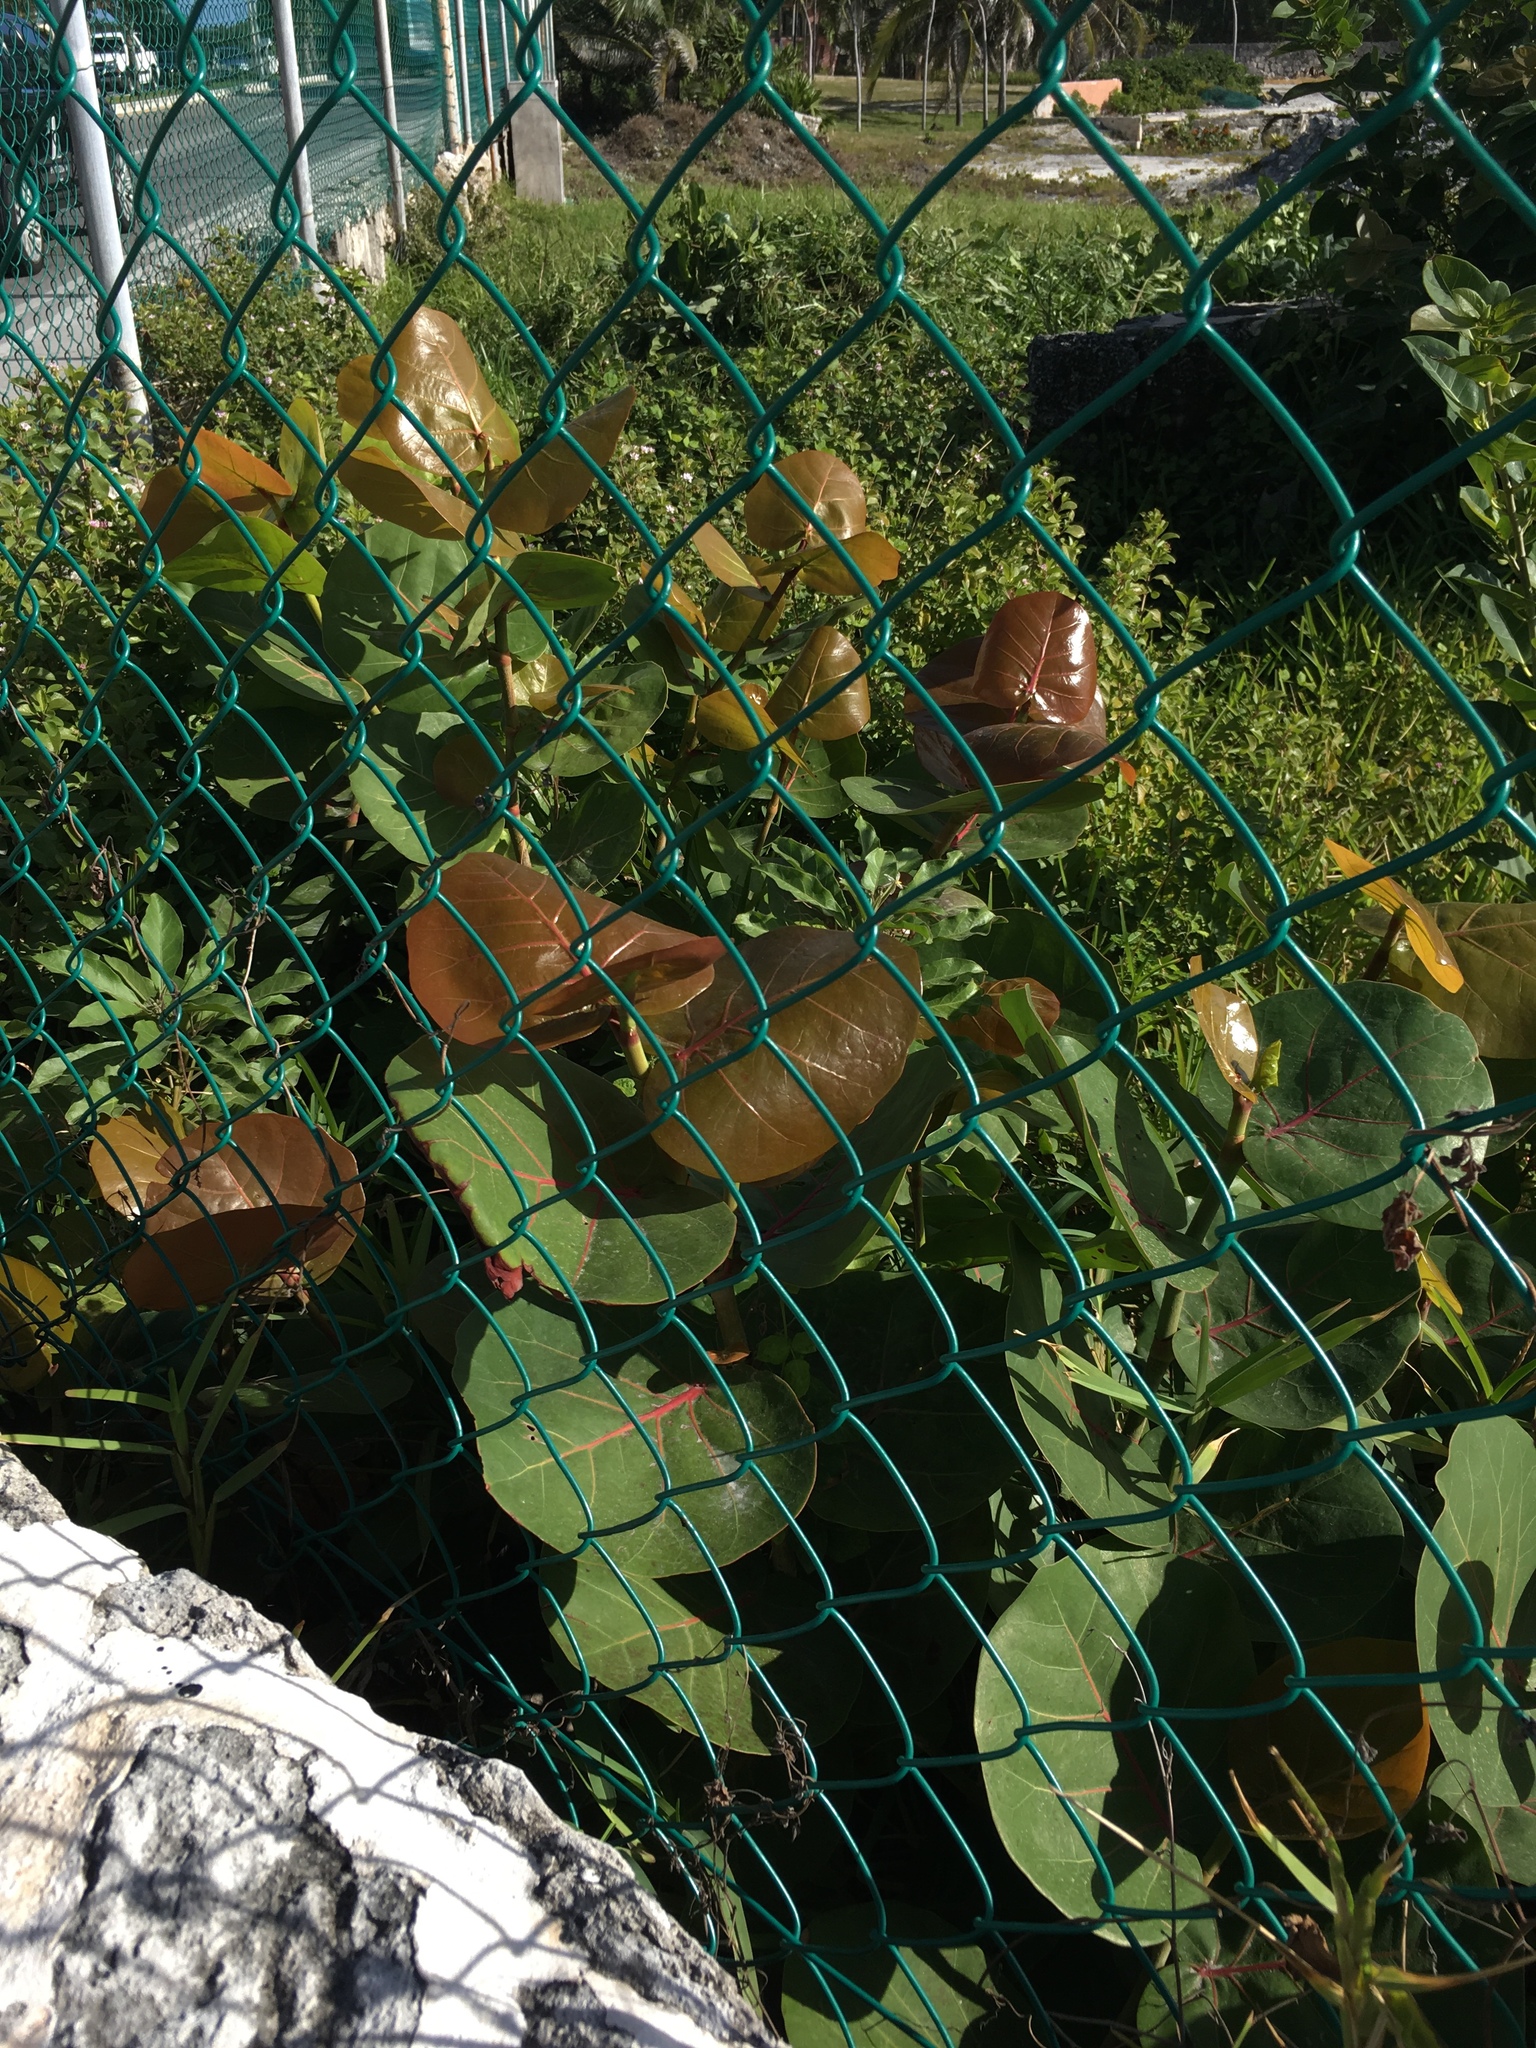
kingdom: Plantae
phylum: Tracheophyta
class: Magnoliopsida
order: Caryophyllales
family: Polygonaceae
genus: Coccoloba
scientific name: Coccoloba uvifera
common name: Seagrape
